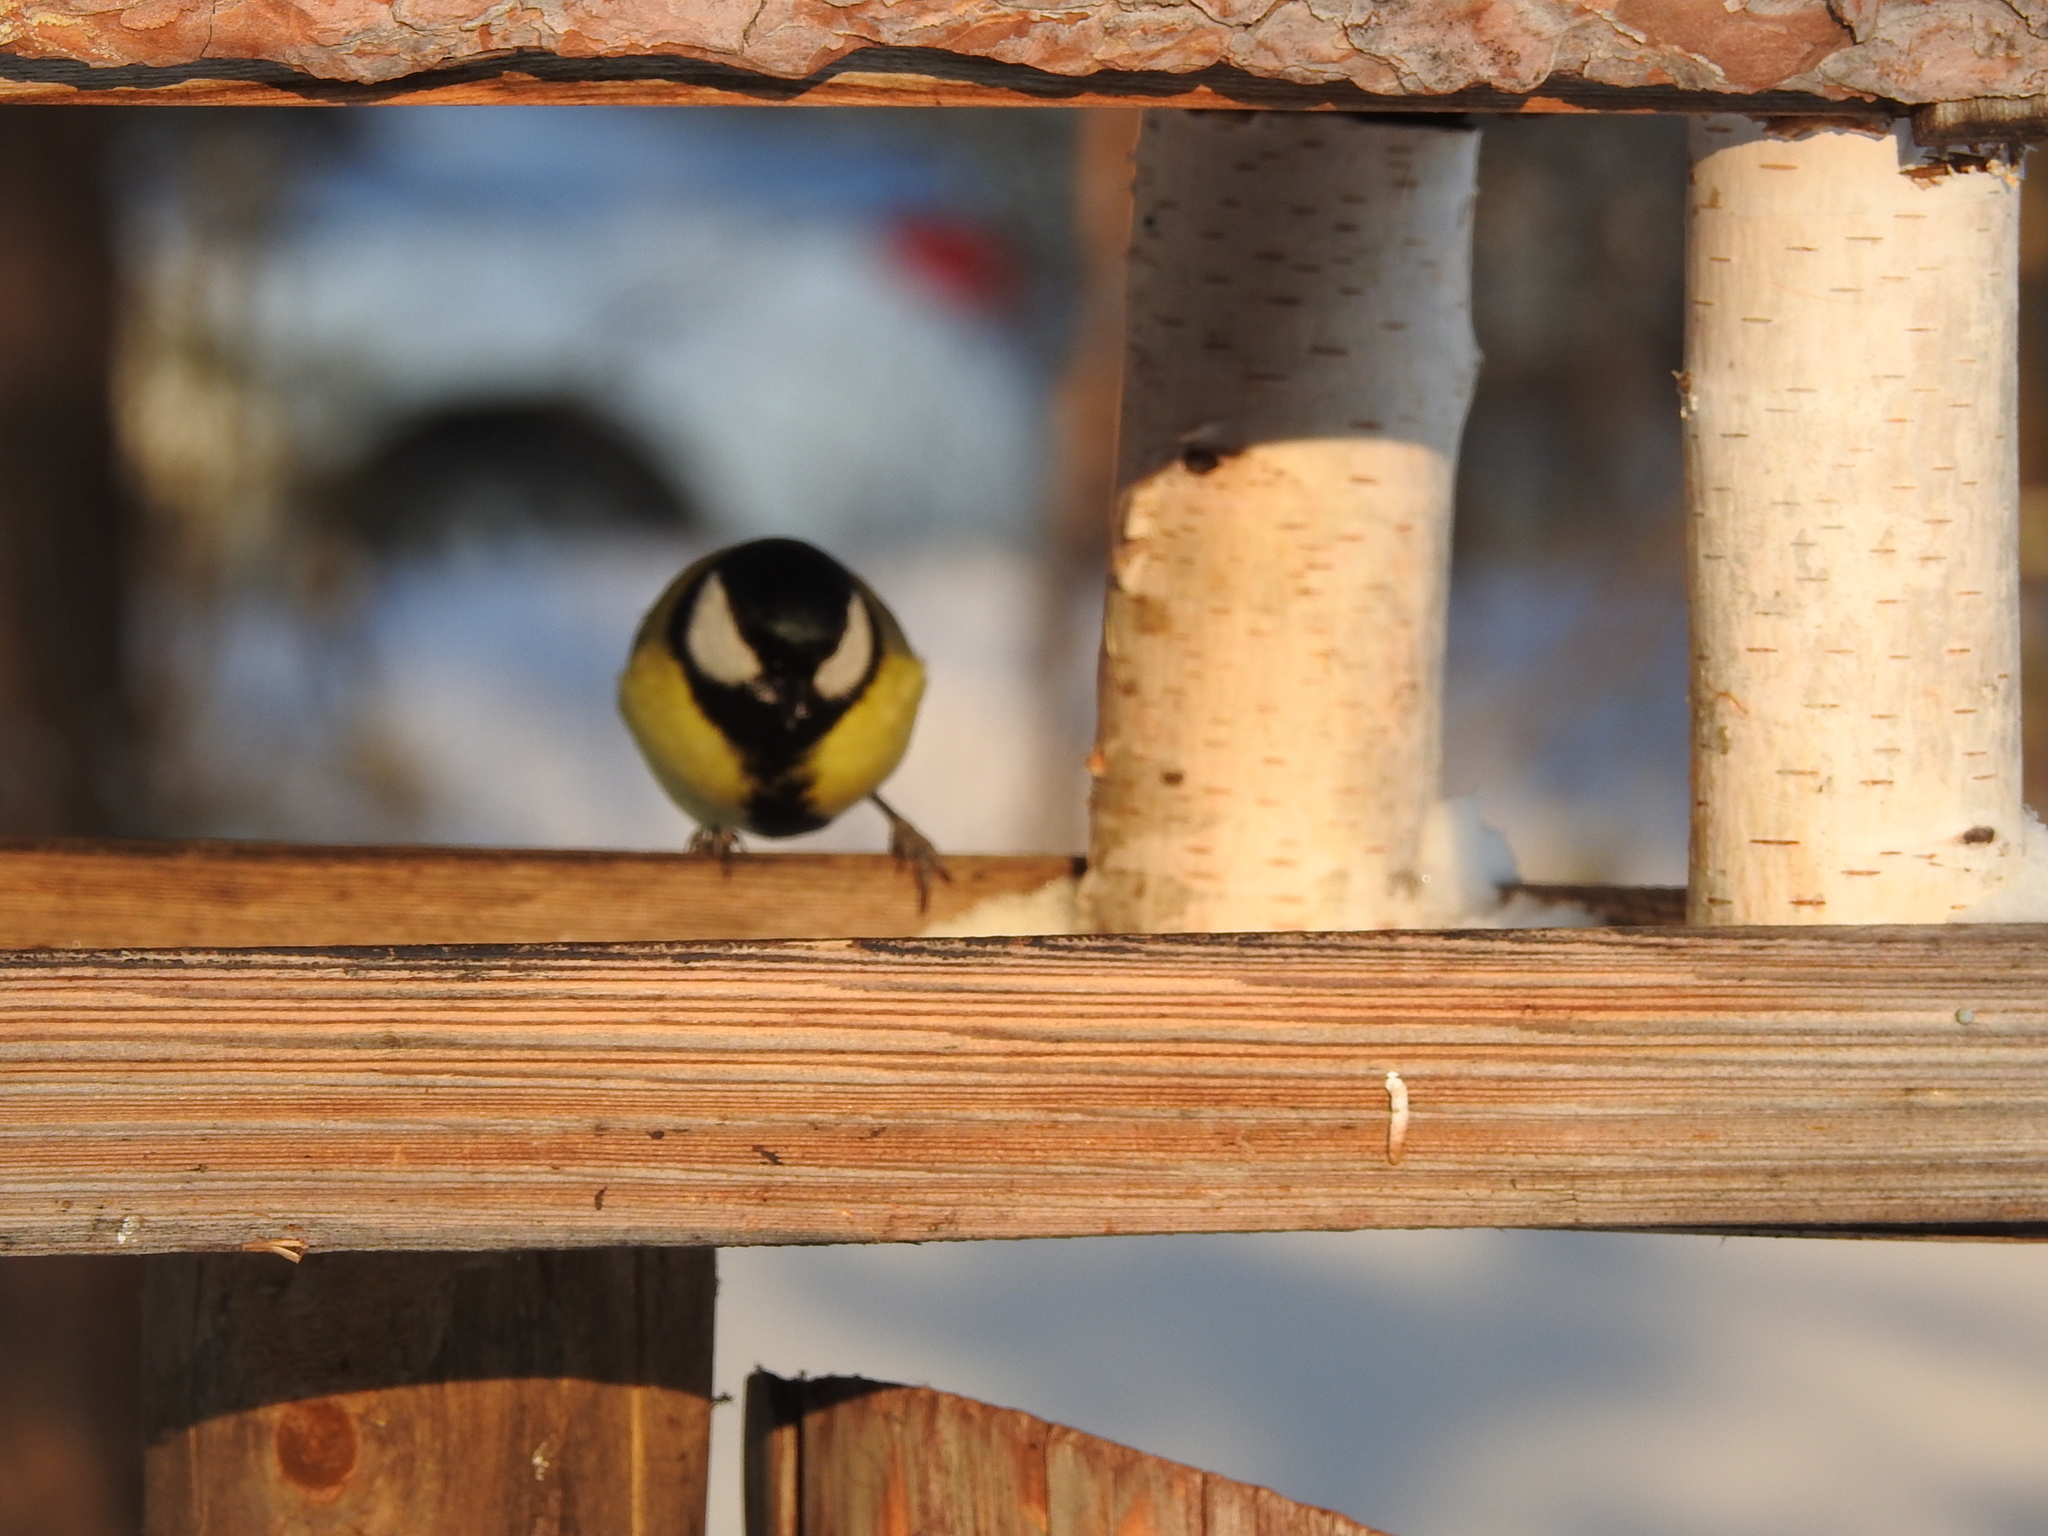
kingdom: Animalia
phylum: Chordata
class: Aves
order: Passeriformes
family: Paridae
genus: Parus
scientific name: Parus major
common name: Great tit
